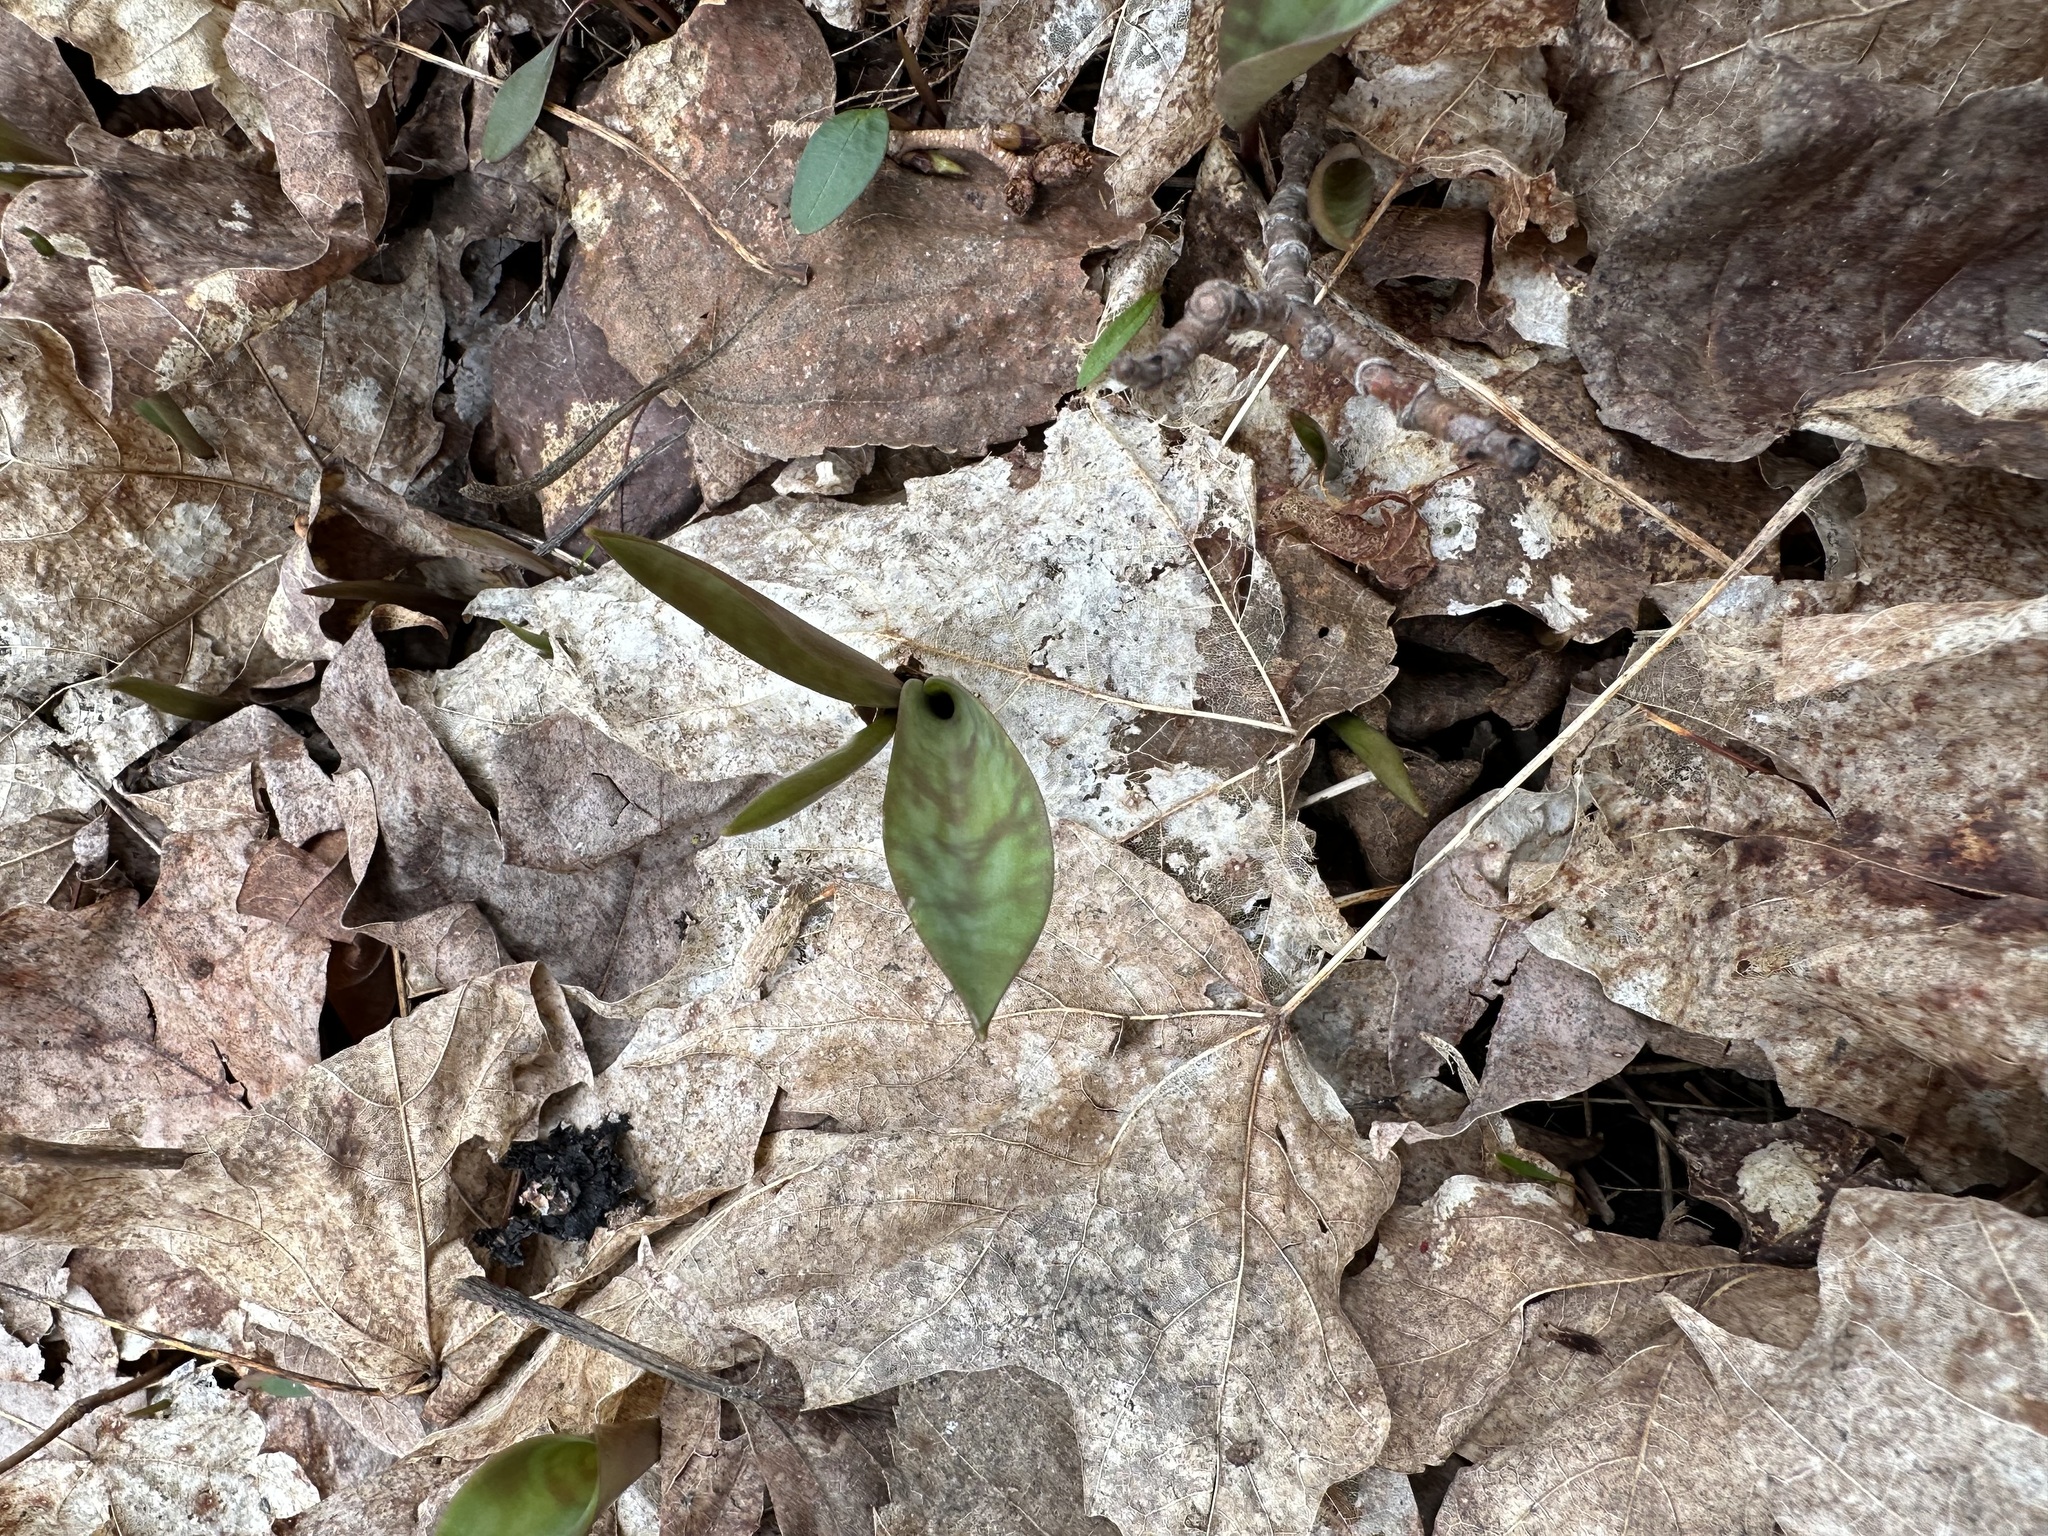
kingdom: Plantae
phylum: Tracheophyta
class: Liliopsida
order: Liliales
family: Liliaceae
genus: Erythronium
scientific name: Erythronium americanum
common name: Yellow adder's-tongue
